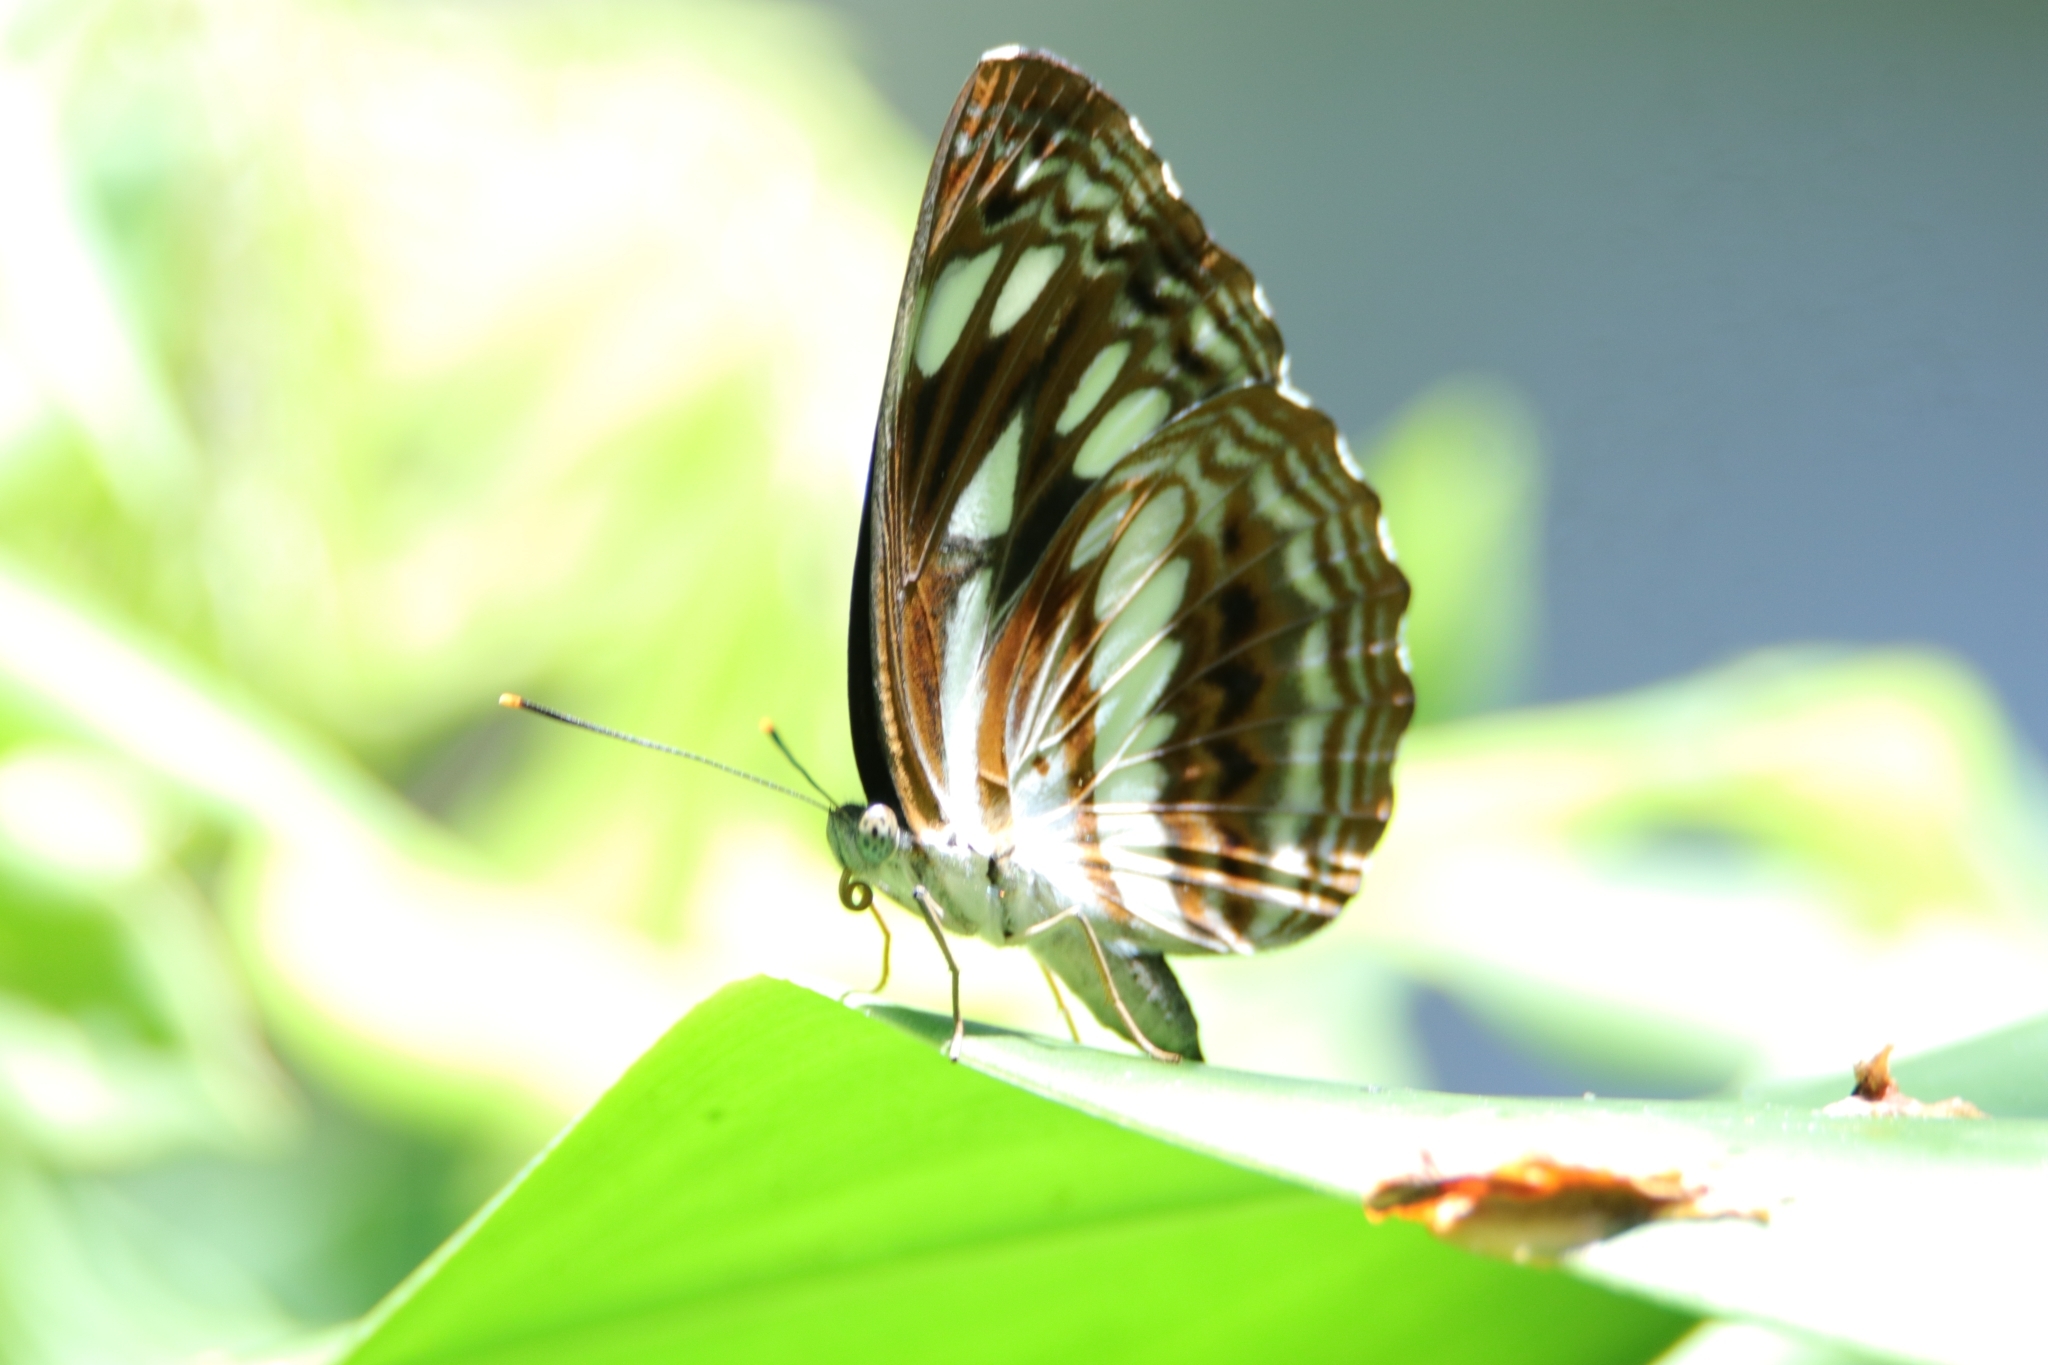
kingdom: Animalia
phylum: Arthropoda
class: Insecta
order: Lepidoptera
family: Nymphalidae
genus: Neptis
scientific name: Neptis jumbah
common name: Chestnut-streaked sailer
